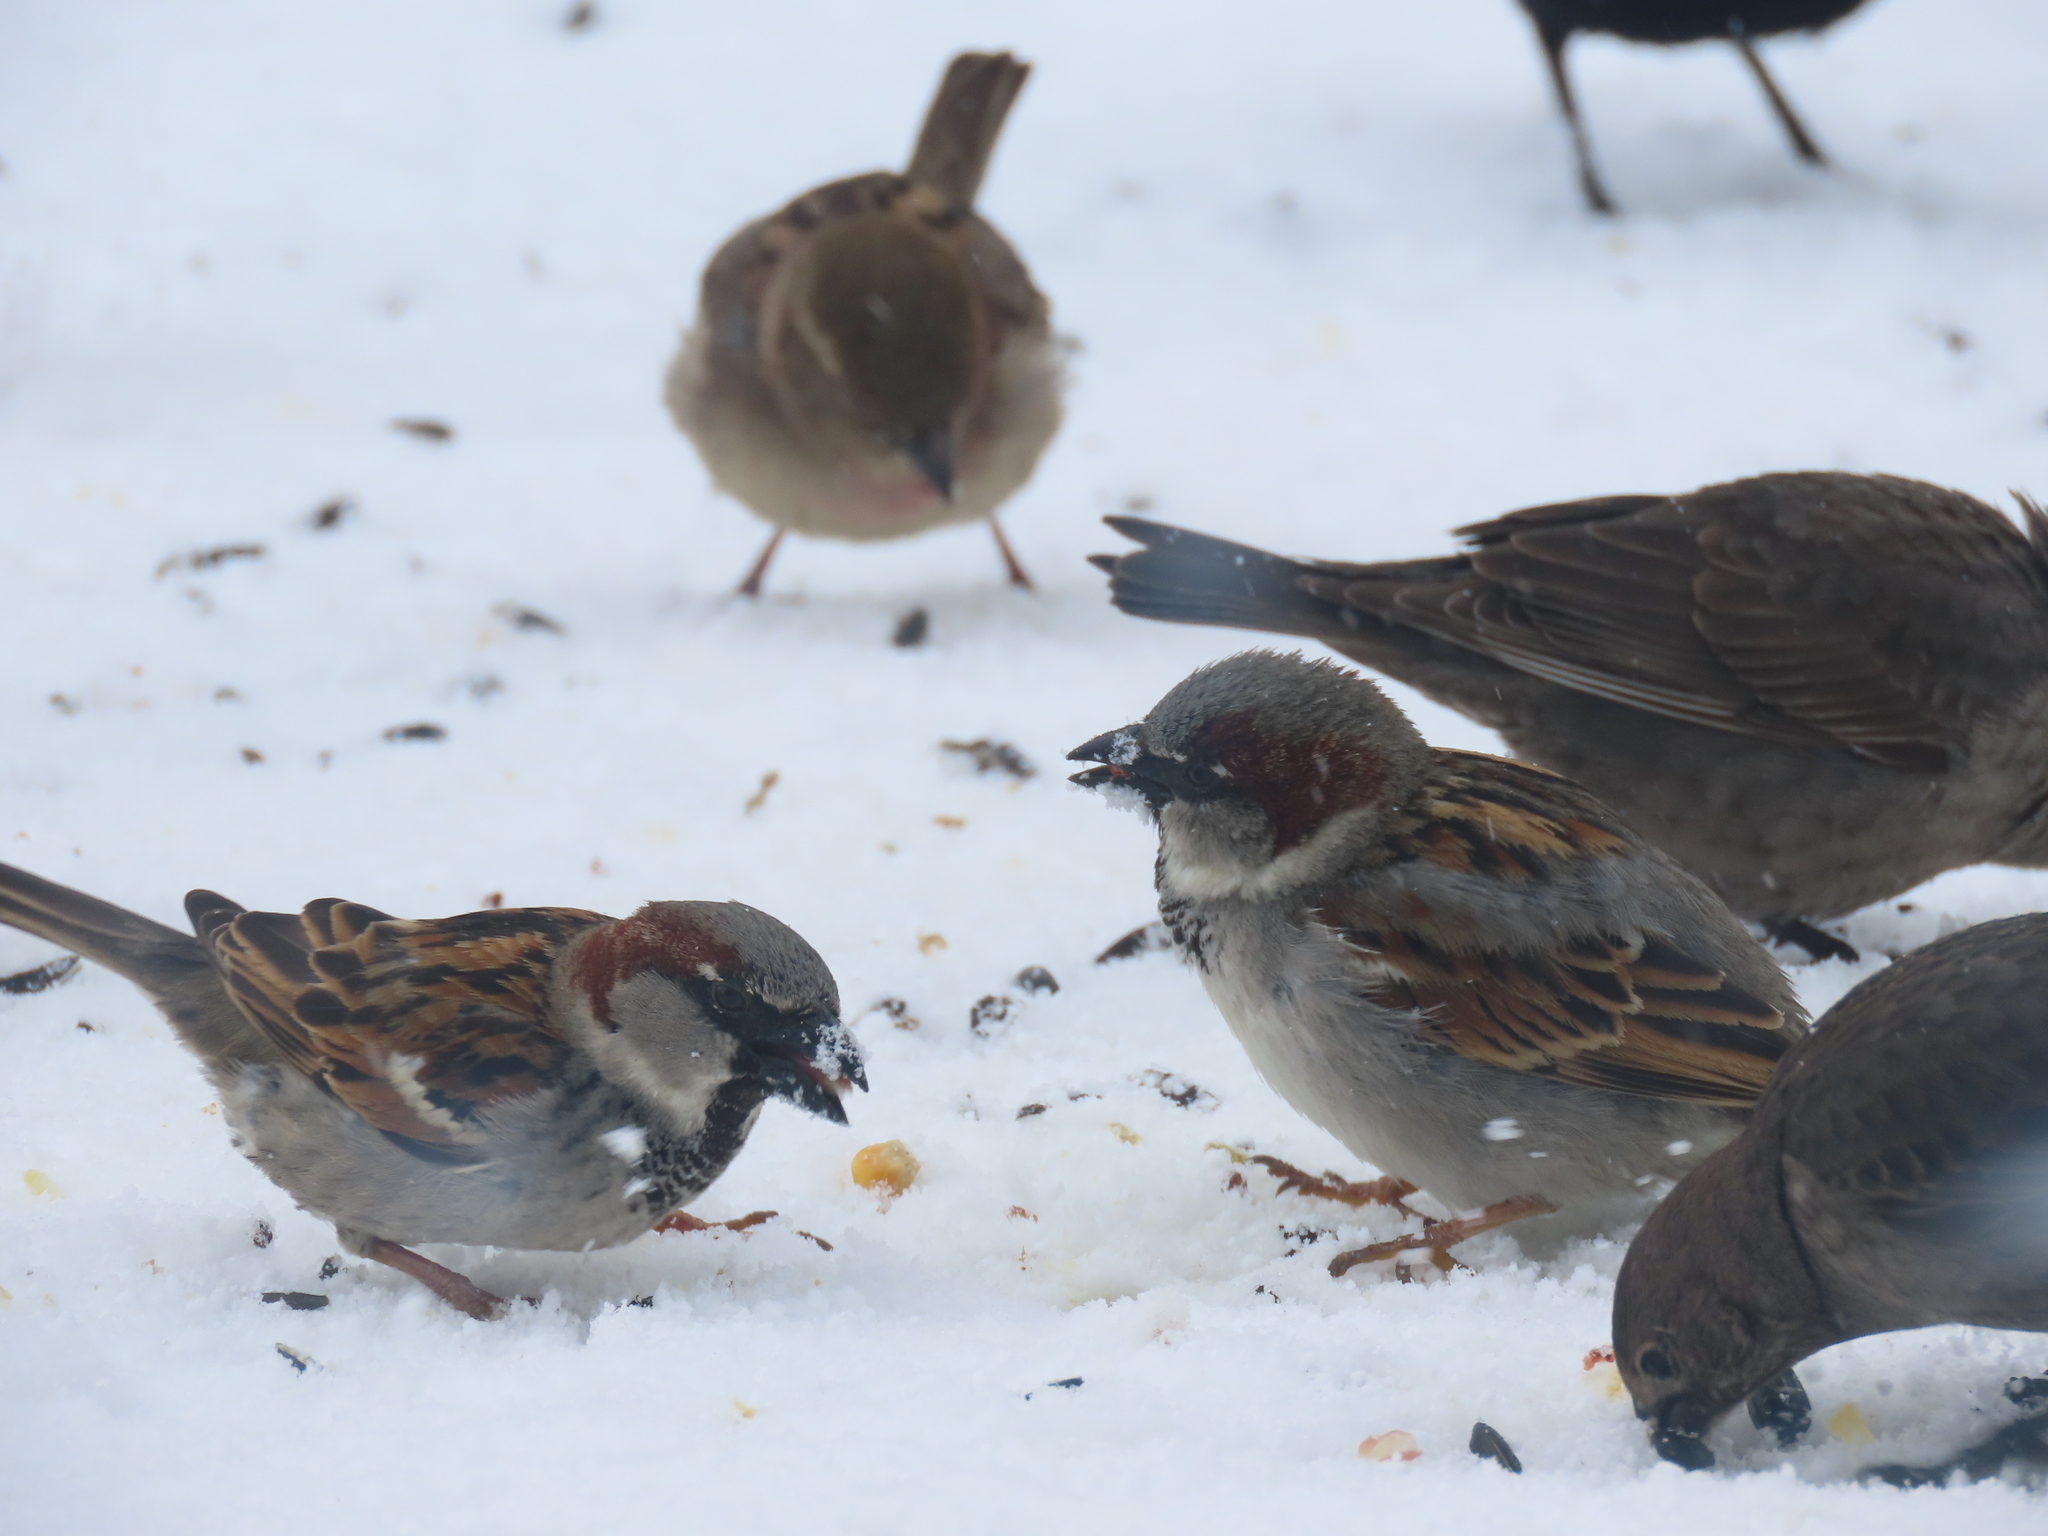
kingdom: Animalia
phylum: Chordata
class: Aves
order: Passeriformes
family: Passeridae
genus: Passer
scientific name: Passer domesticus
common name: House sparrow
